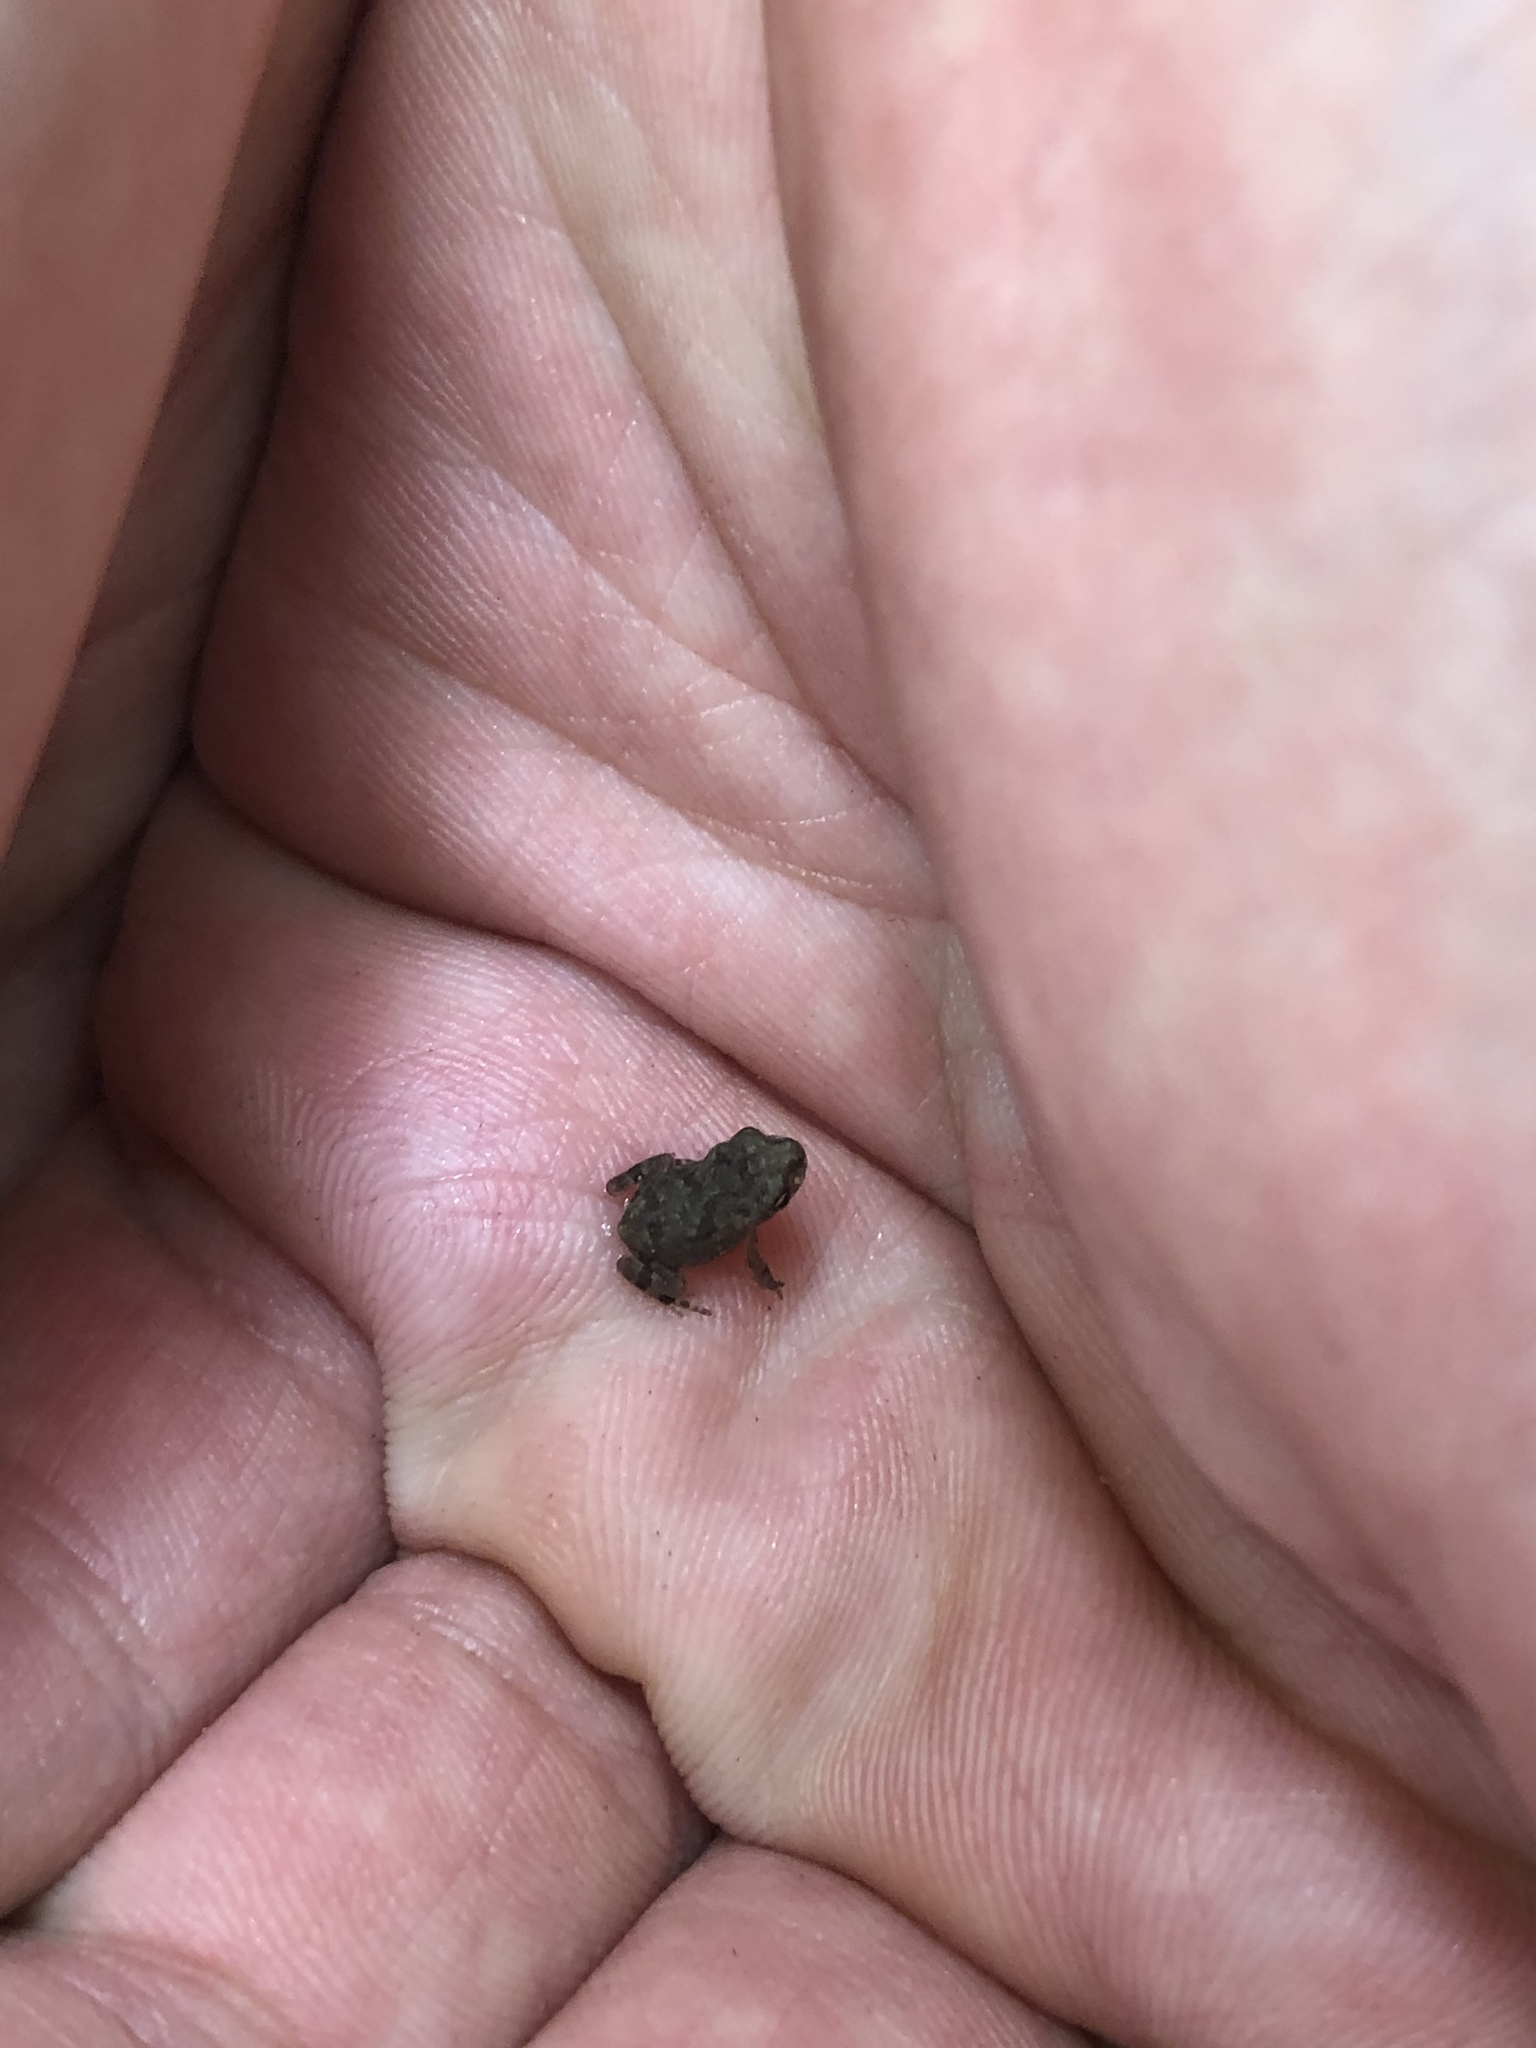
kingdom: Animalia
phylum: Chordata
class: Amphibia
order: Anura
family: Bufonidae
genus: Incilius
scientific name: Incilius nebulifer
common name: Gulf coast toad
